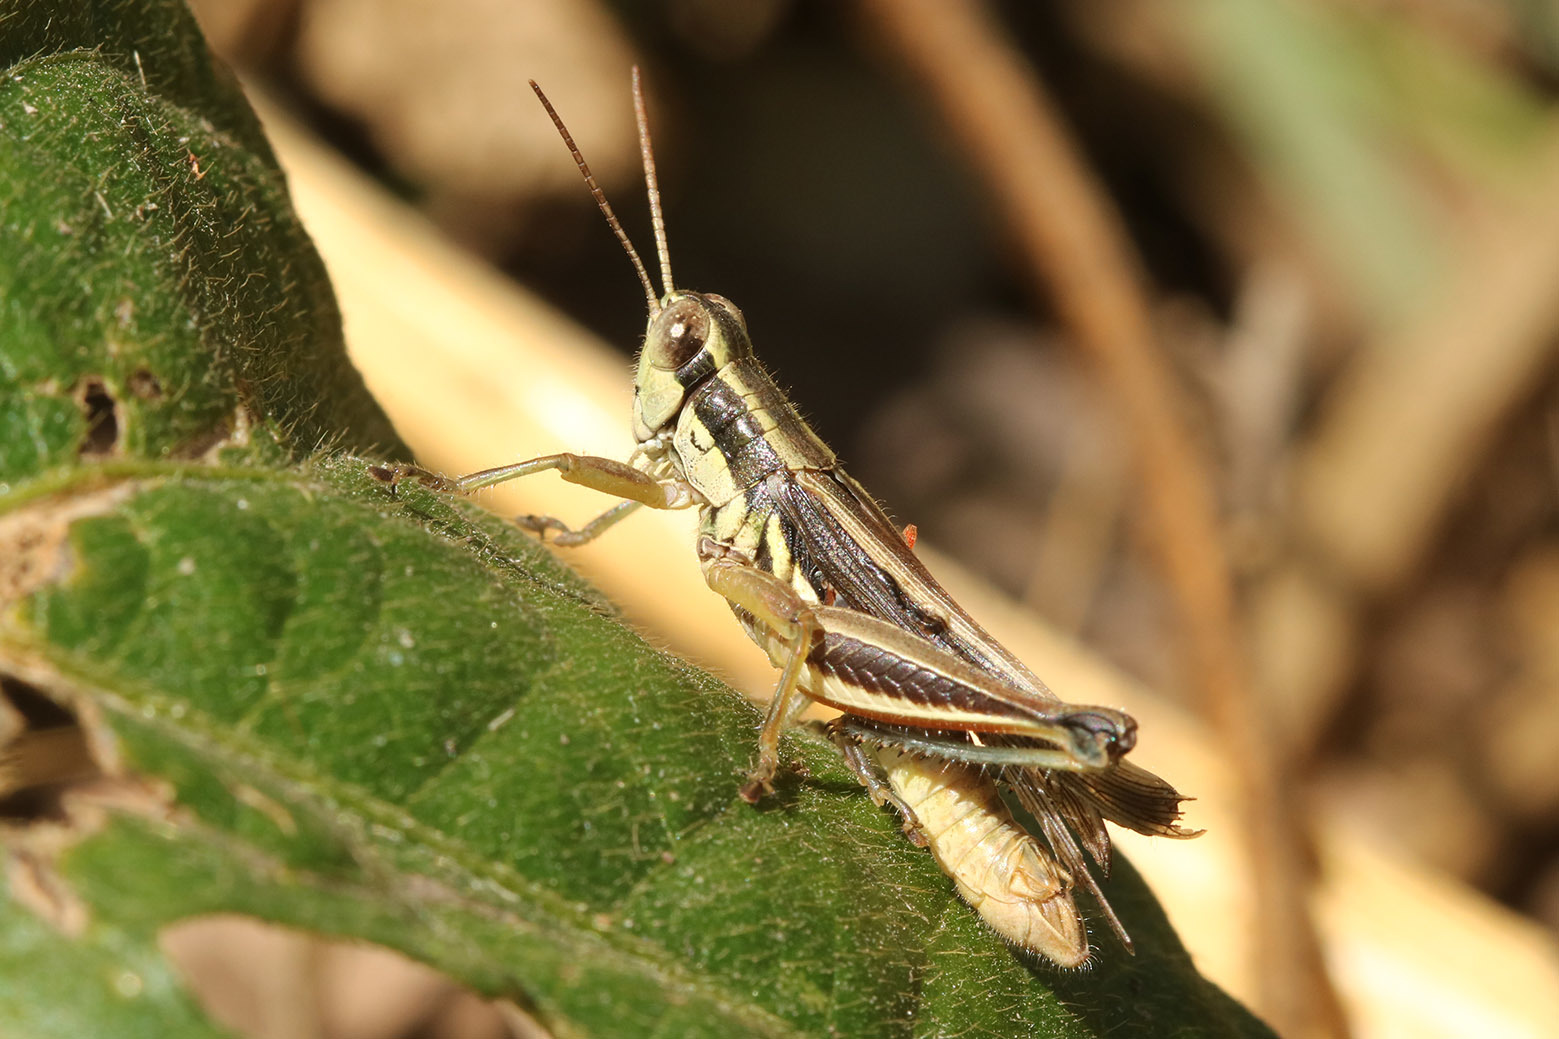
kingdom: Animalia
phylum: Arthropoda
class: Insecta
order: Orthoptera
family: Acrididae
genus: Dichroplus
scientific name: Dichroplus elongatus
